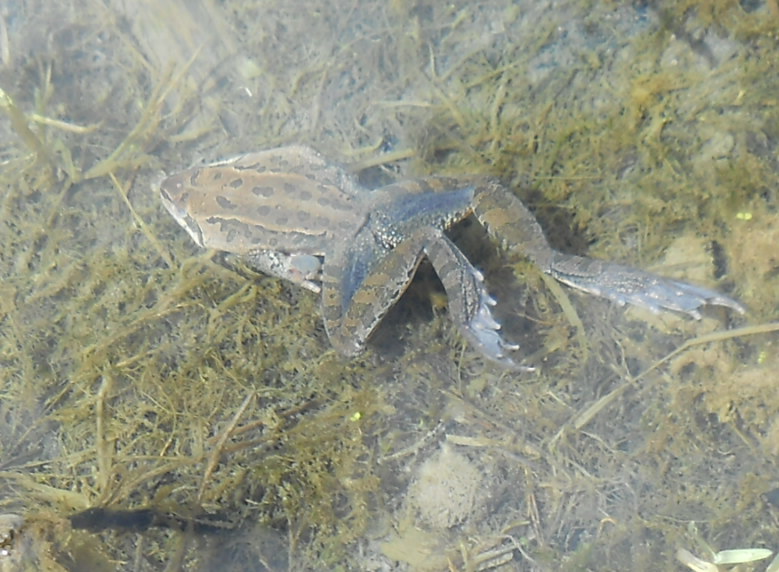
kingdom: Animalia
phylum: Chordata
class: Amphibia
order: Anura
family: Ranidae
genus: Rana
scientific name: Rana macrocnemis
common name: Banded frog
